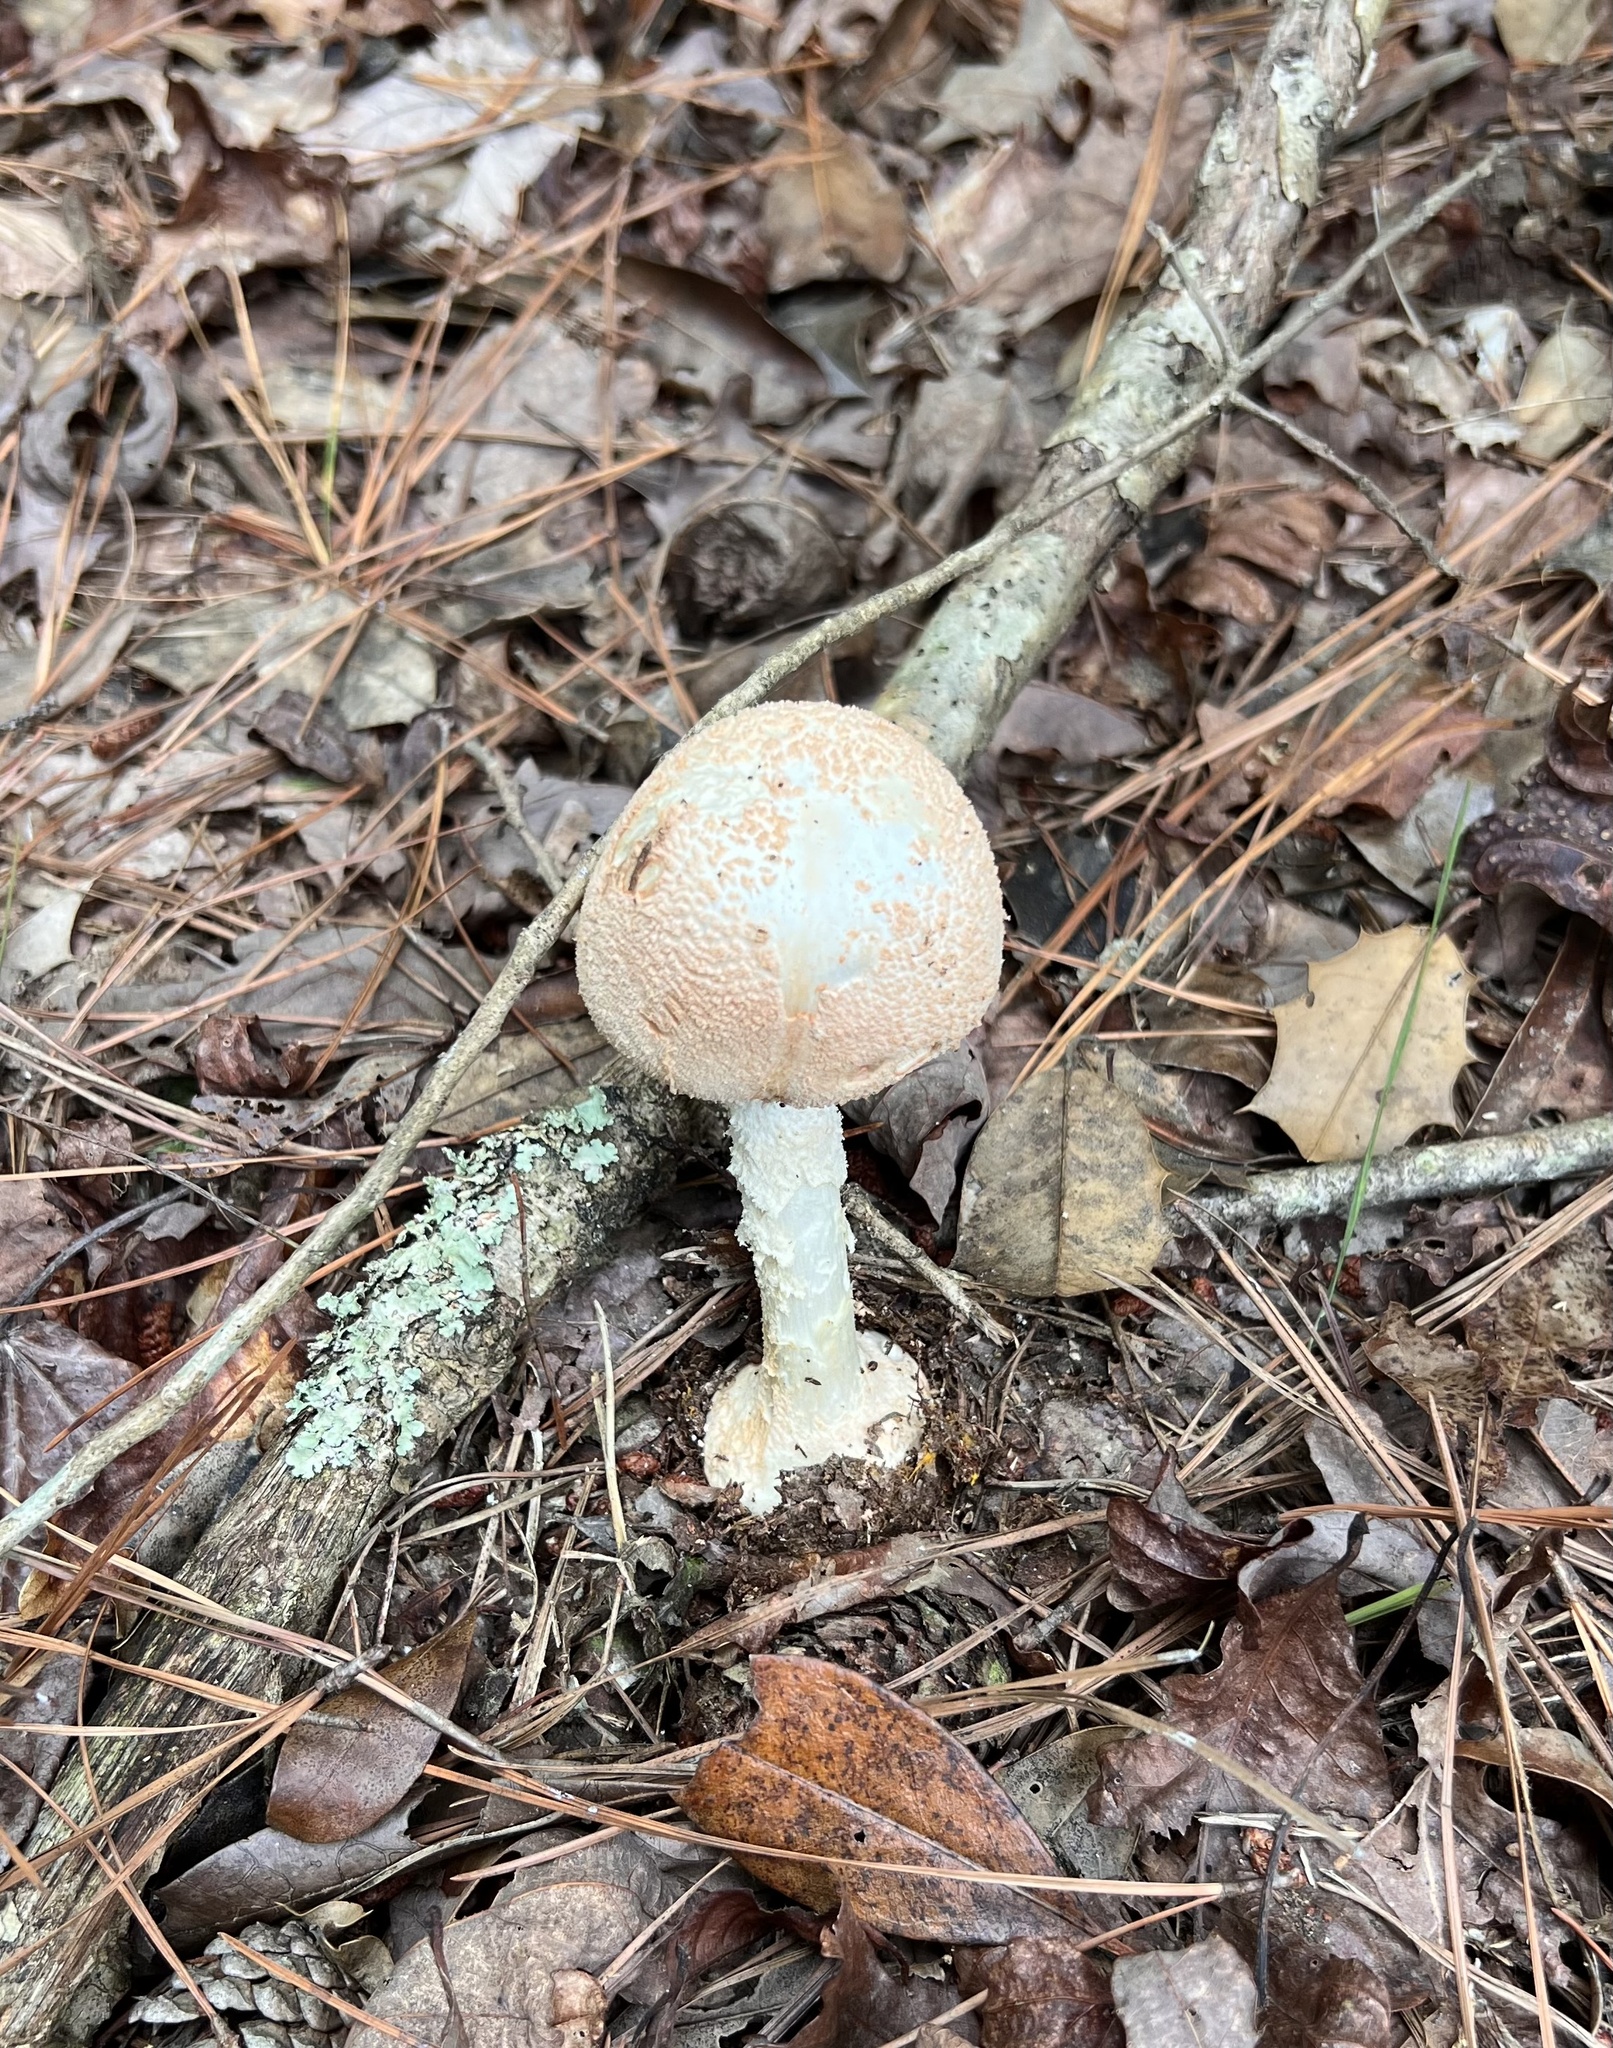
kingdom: Fungi
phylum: Basidiomycota
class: Agaricomycetes
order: Agaricales
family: Amanitaceae
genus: Amanita
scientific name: Amanita roseotincta
